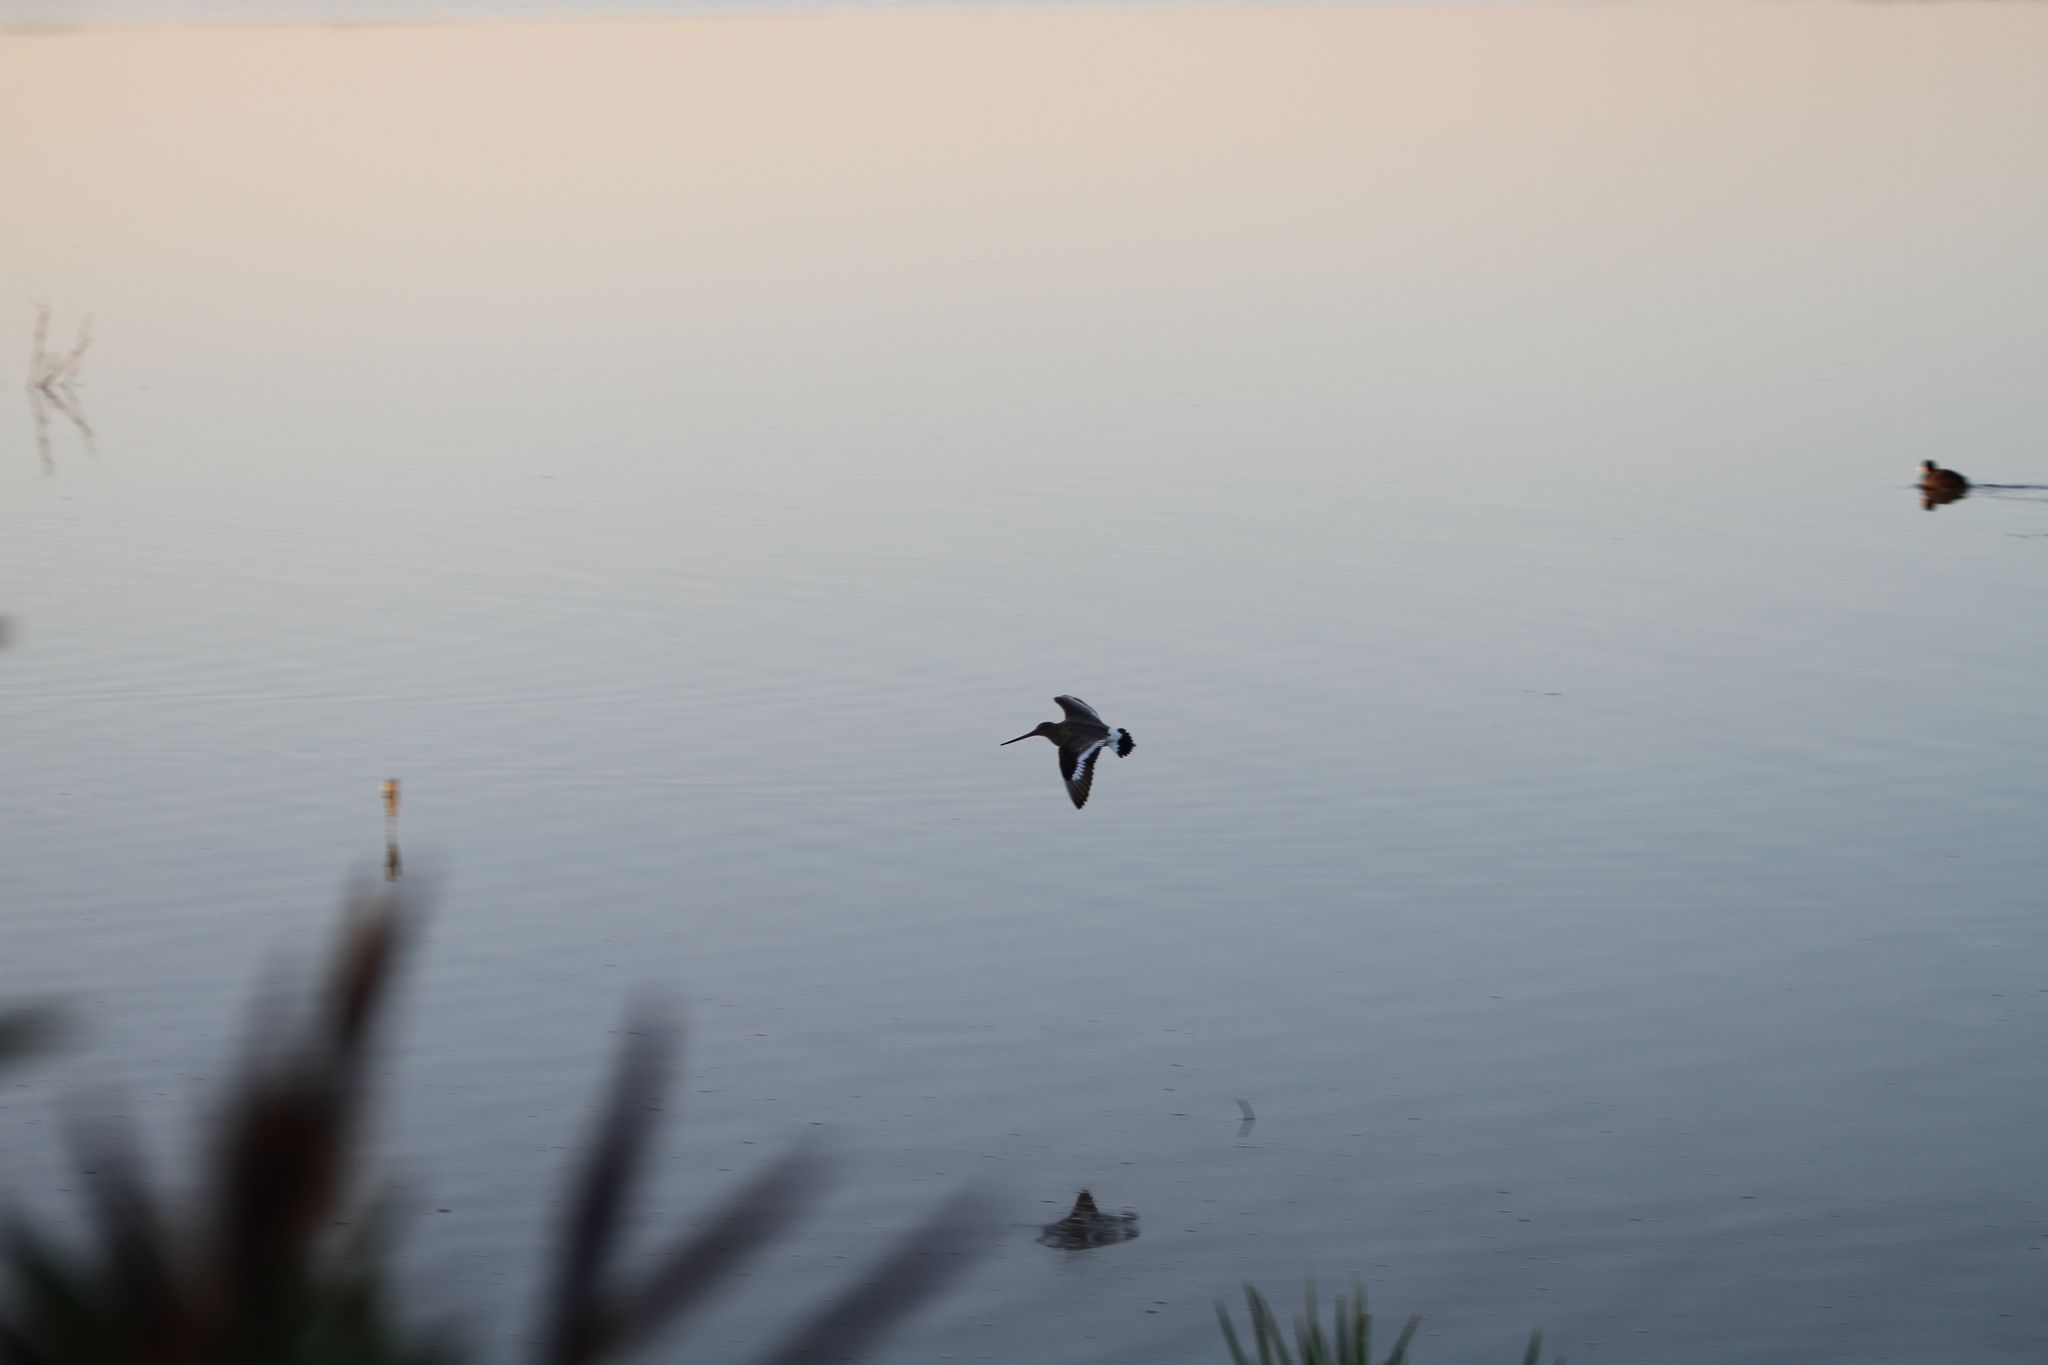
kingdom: Animalia
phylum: Chordata
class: Aves
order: Charadriiformes
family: Scolopacidae
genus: Limosa
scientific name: Limosa limosa
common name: Black-tailed godwit
